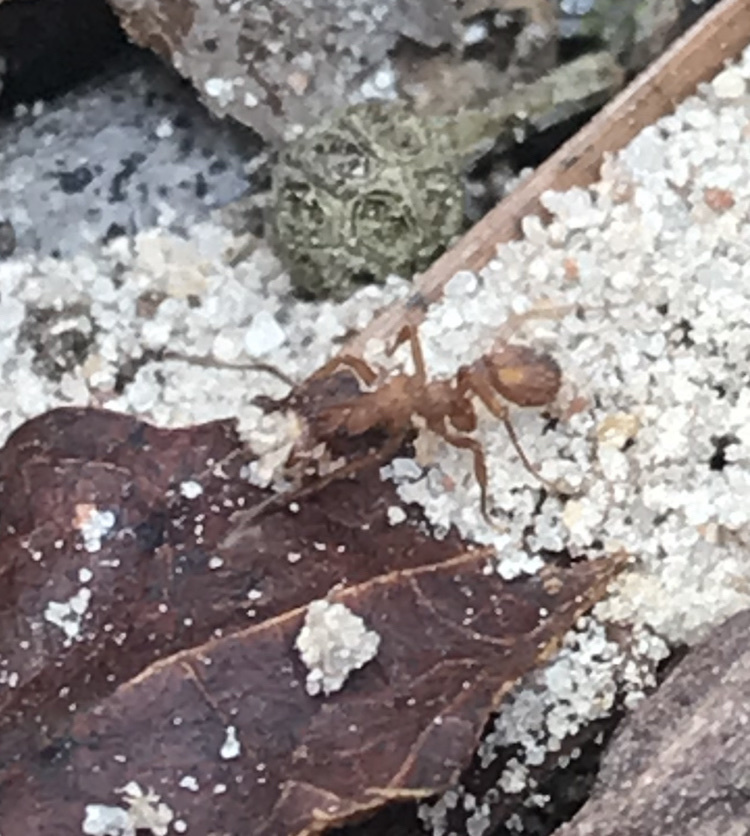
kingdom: Animalia
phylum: Arthropoda
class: Insecta
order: Hymenoptera
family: Formicidae
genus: Trachymyrmex
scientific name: Trachymyrmex septentrionalis
